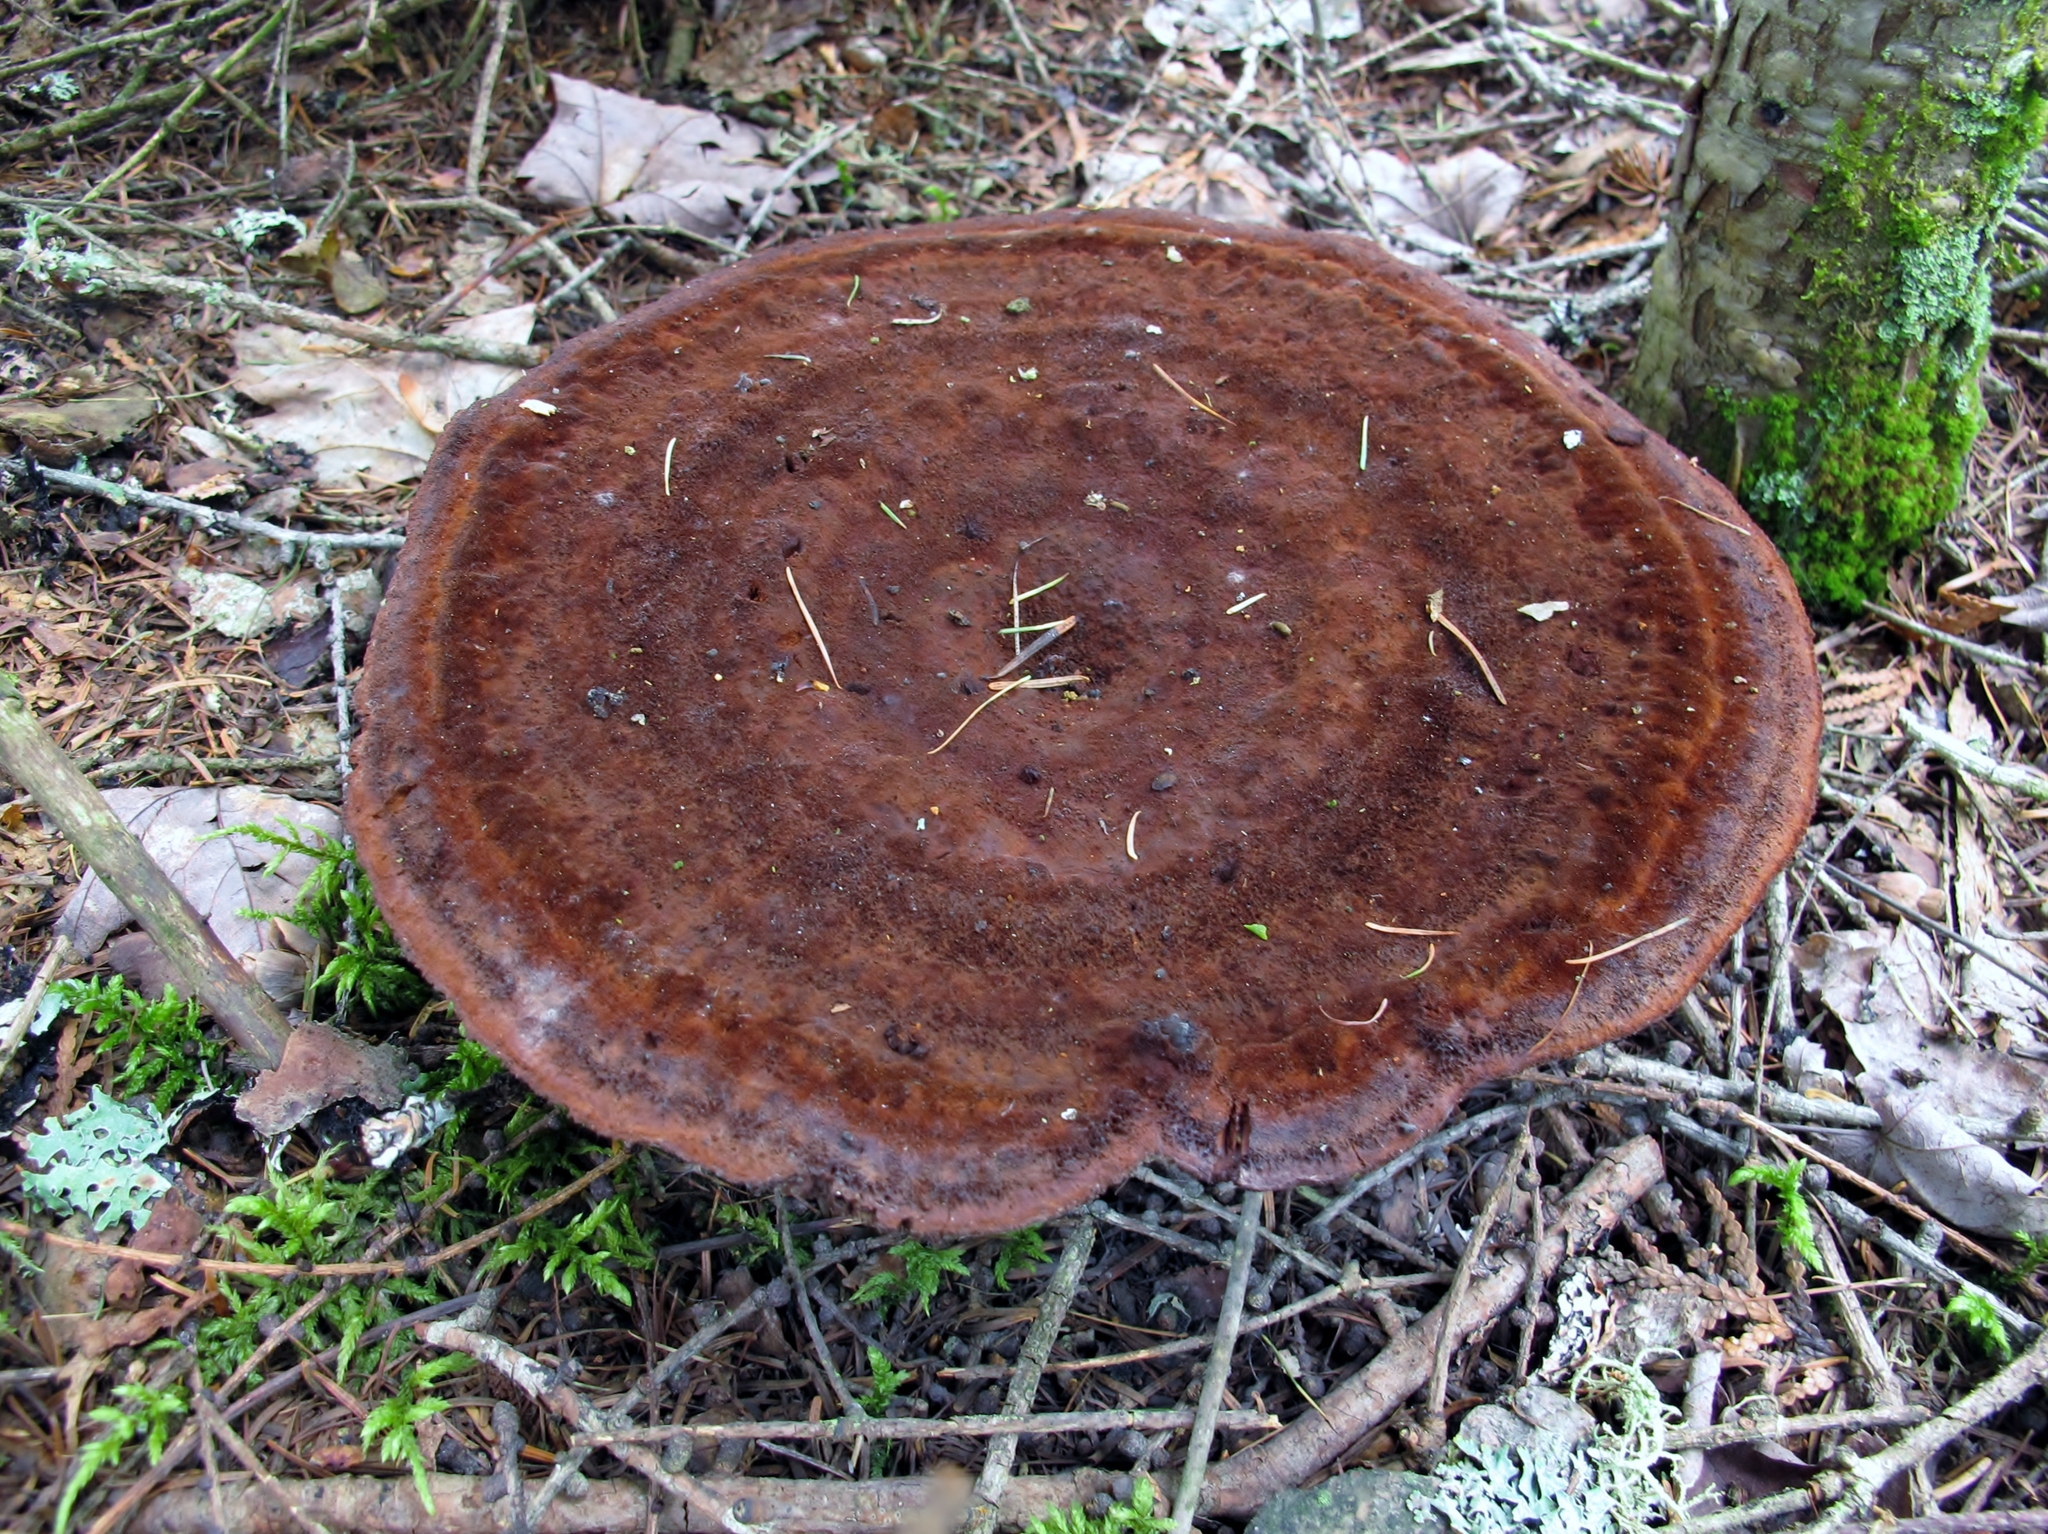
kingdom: Fungi
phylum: Basidiomycota
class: Agaricomycetes
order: Polyporales
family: Laetiporaceae
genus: Phaeolus
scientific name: Phaeolus schweinitzii
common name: Dyer's mazegill
